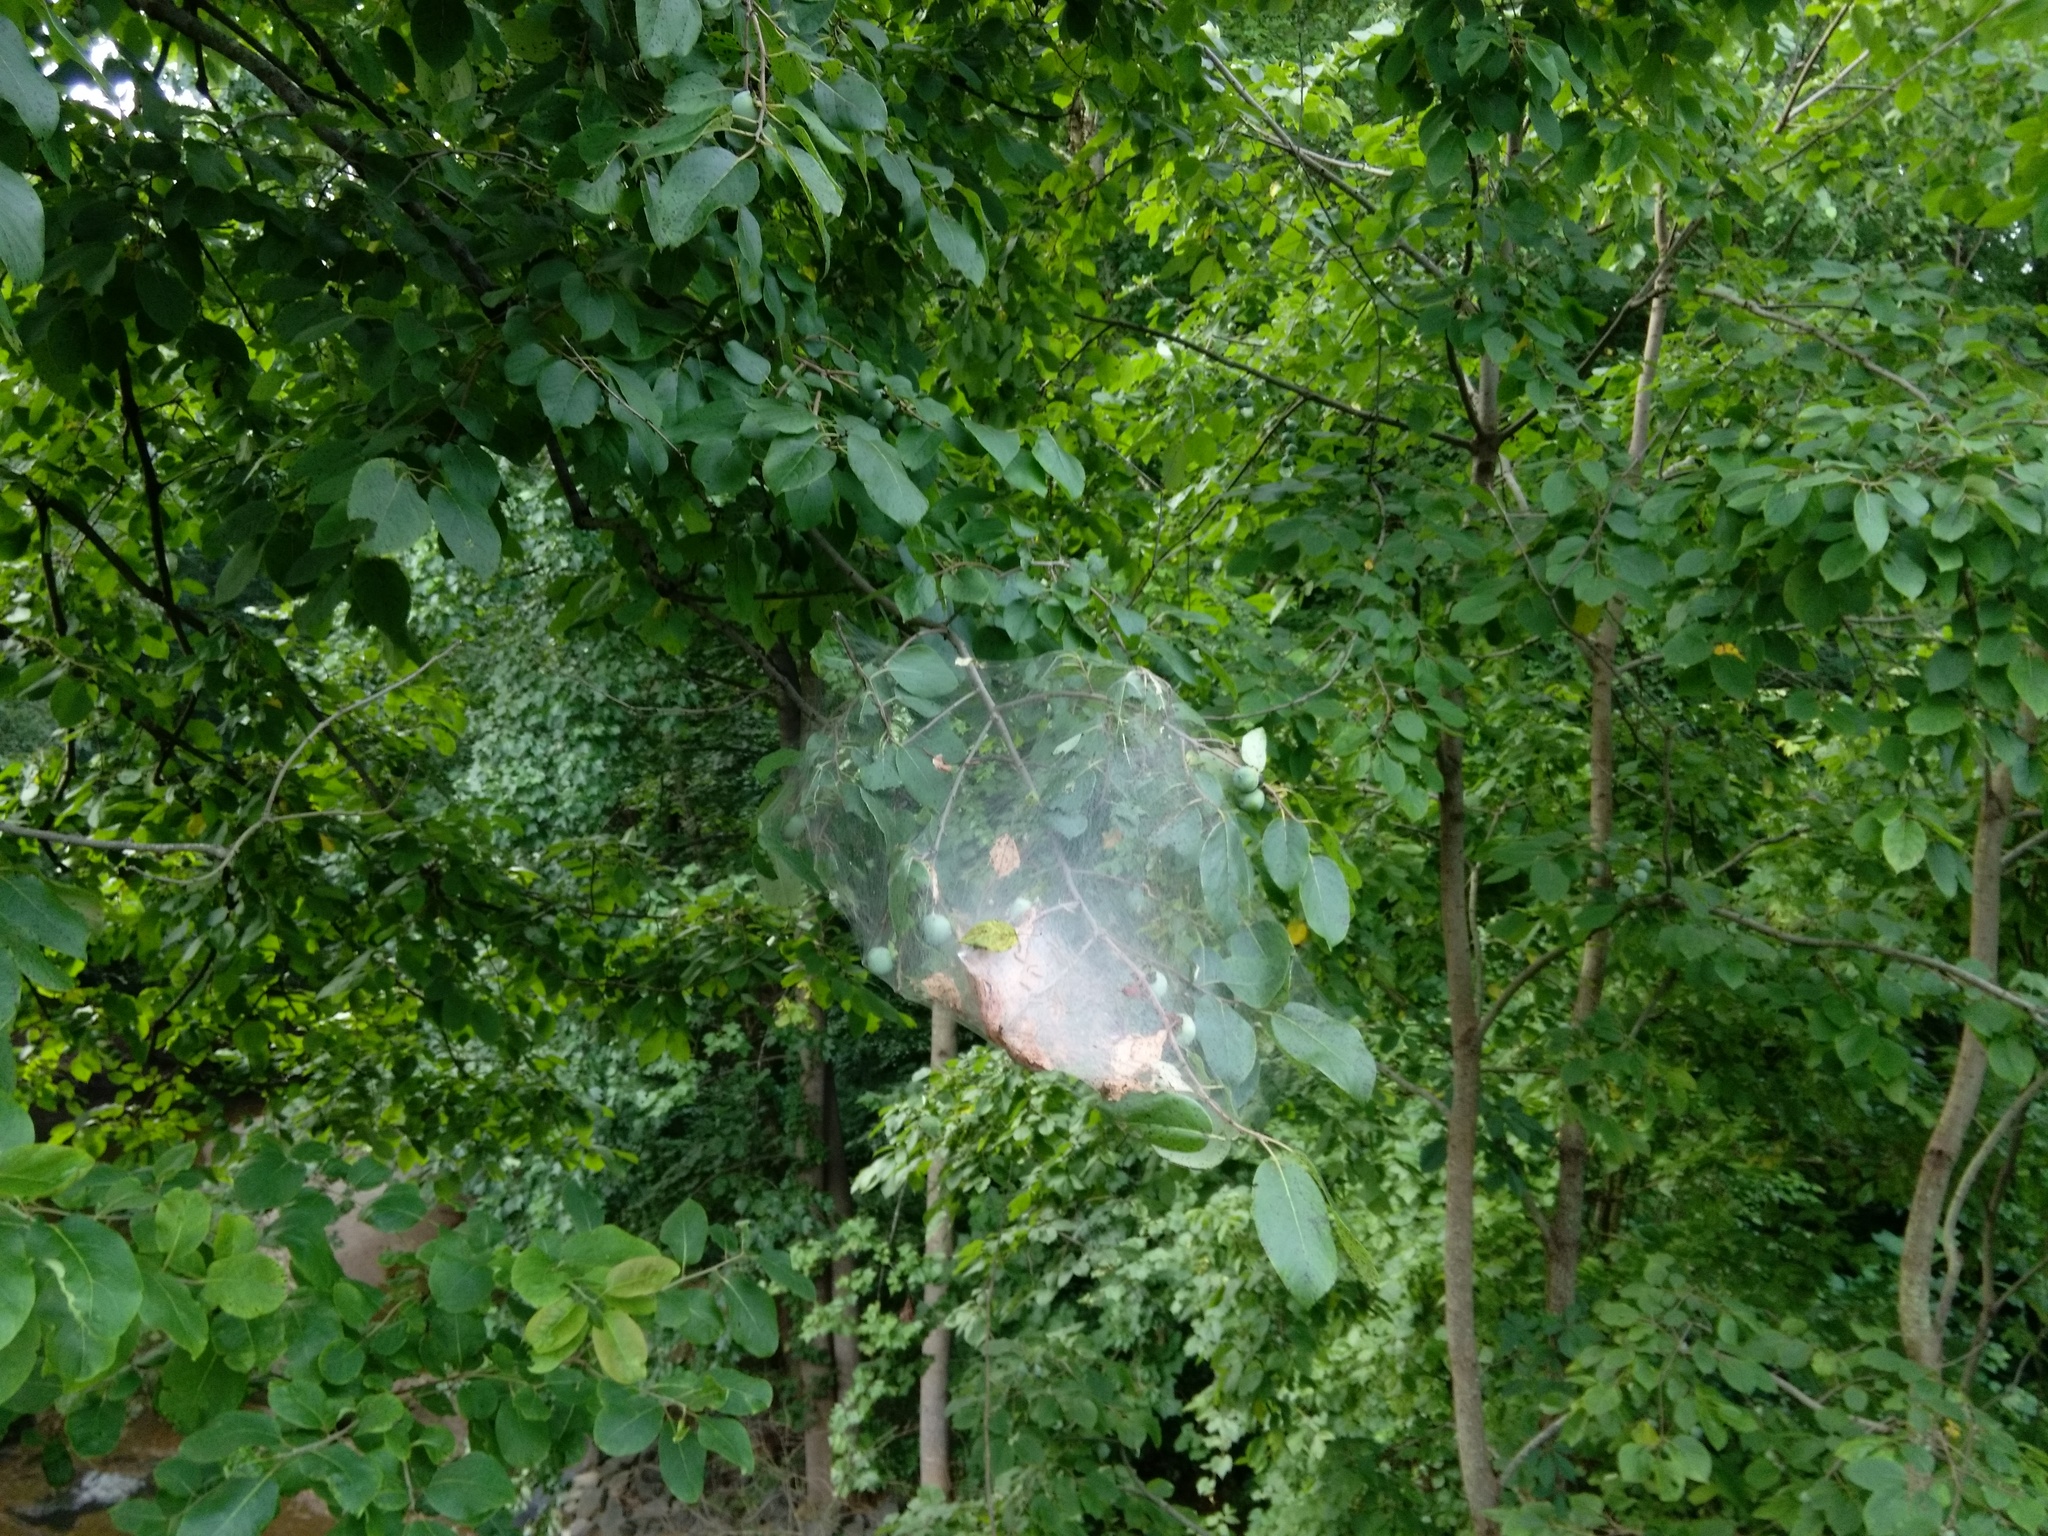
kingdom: Animalia
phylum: Arthropoda
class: Insecta
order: Lepidoptera
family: Erebidae
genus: Hyphantria
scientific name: Hyphantria cunea
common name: American white moth
